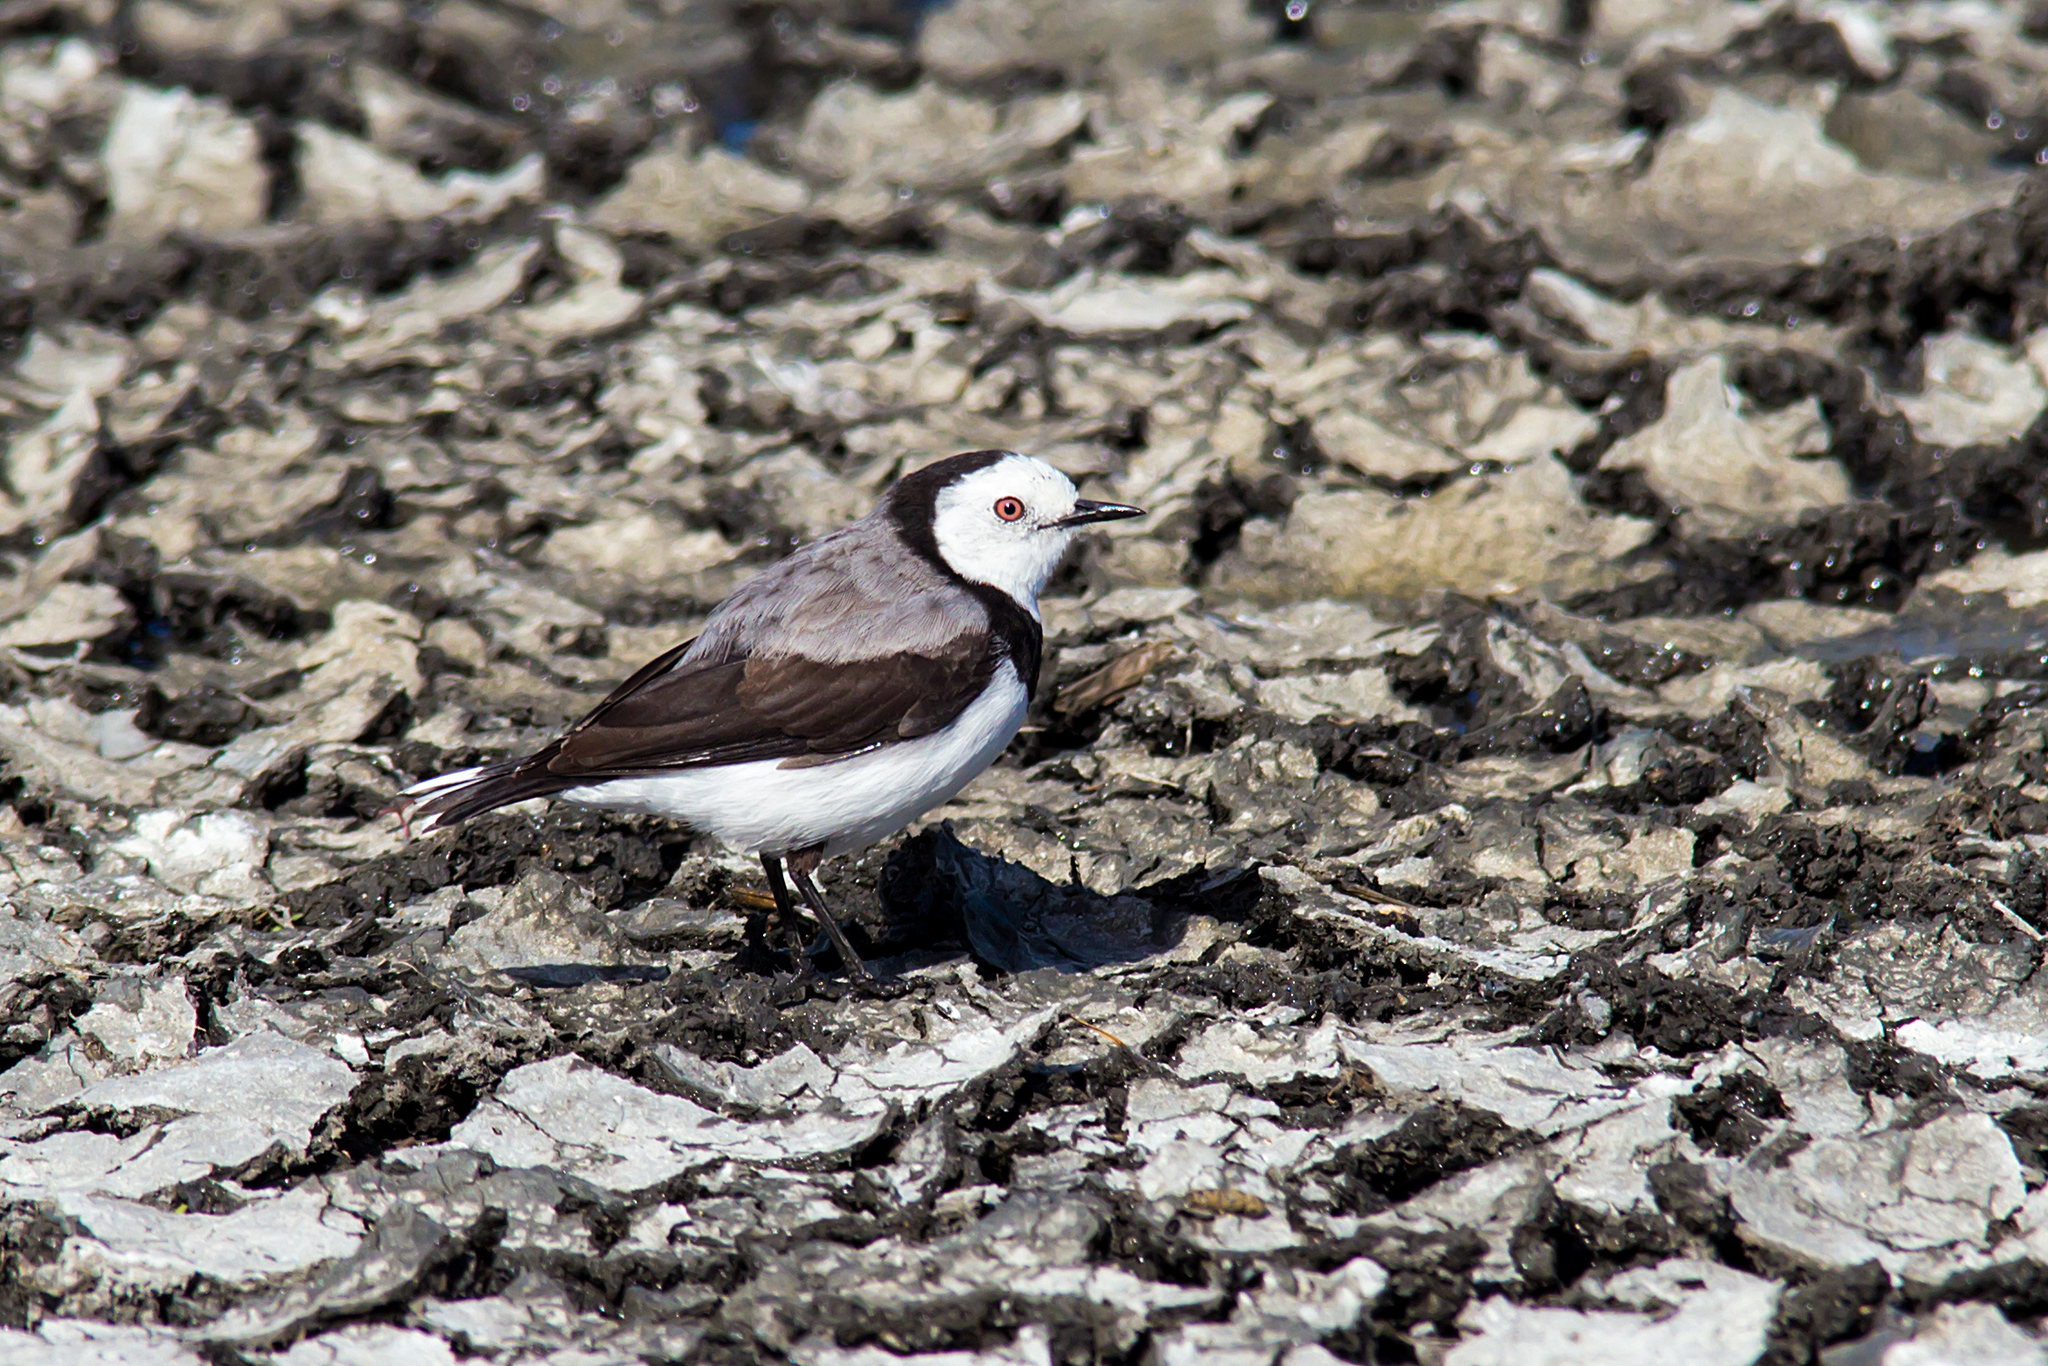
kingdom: Animalia
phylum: Chordata
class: Aves
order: Passeriformes
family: Meliphagidae
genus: Epthianura
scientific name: Epthianura albifrons
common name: White-fronted chat
